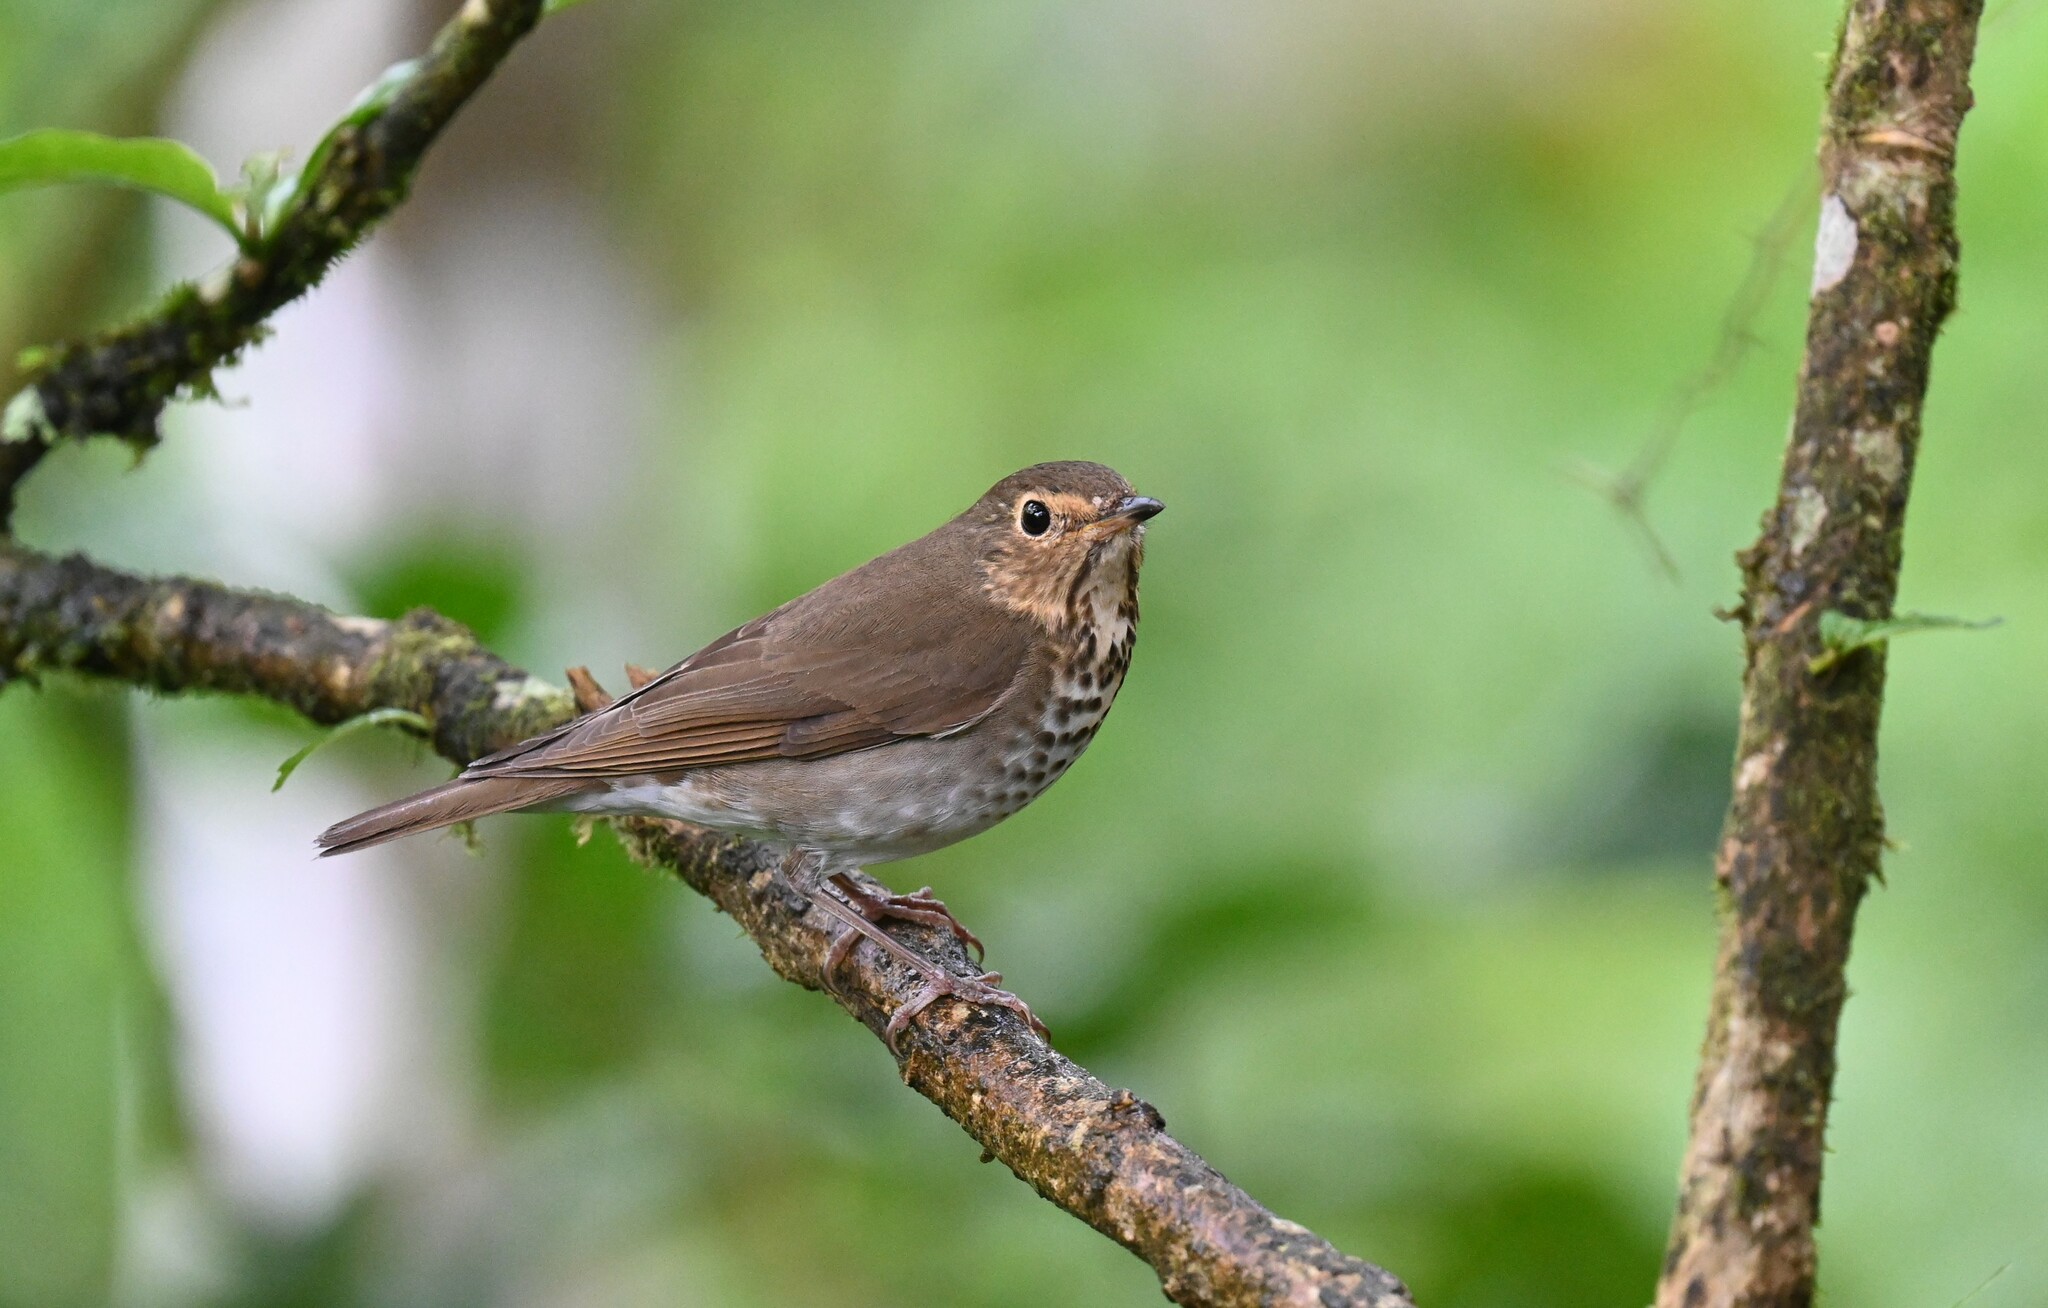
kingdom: Animalia
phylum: Chordata
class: Aves
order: Passeriformes
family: Turdidae
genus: Catharus
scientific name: Catharus ustulatus
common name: Swainson's thrush
